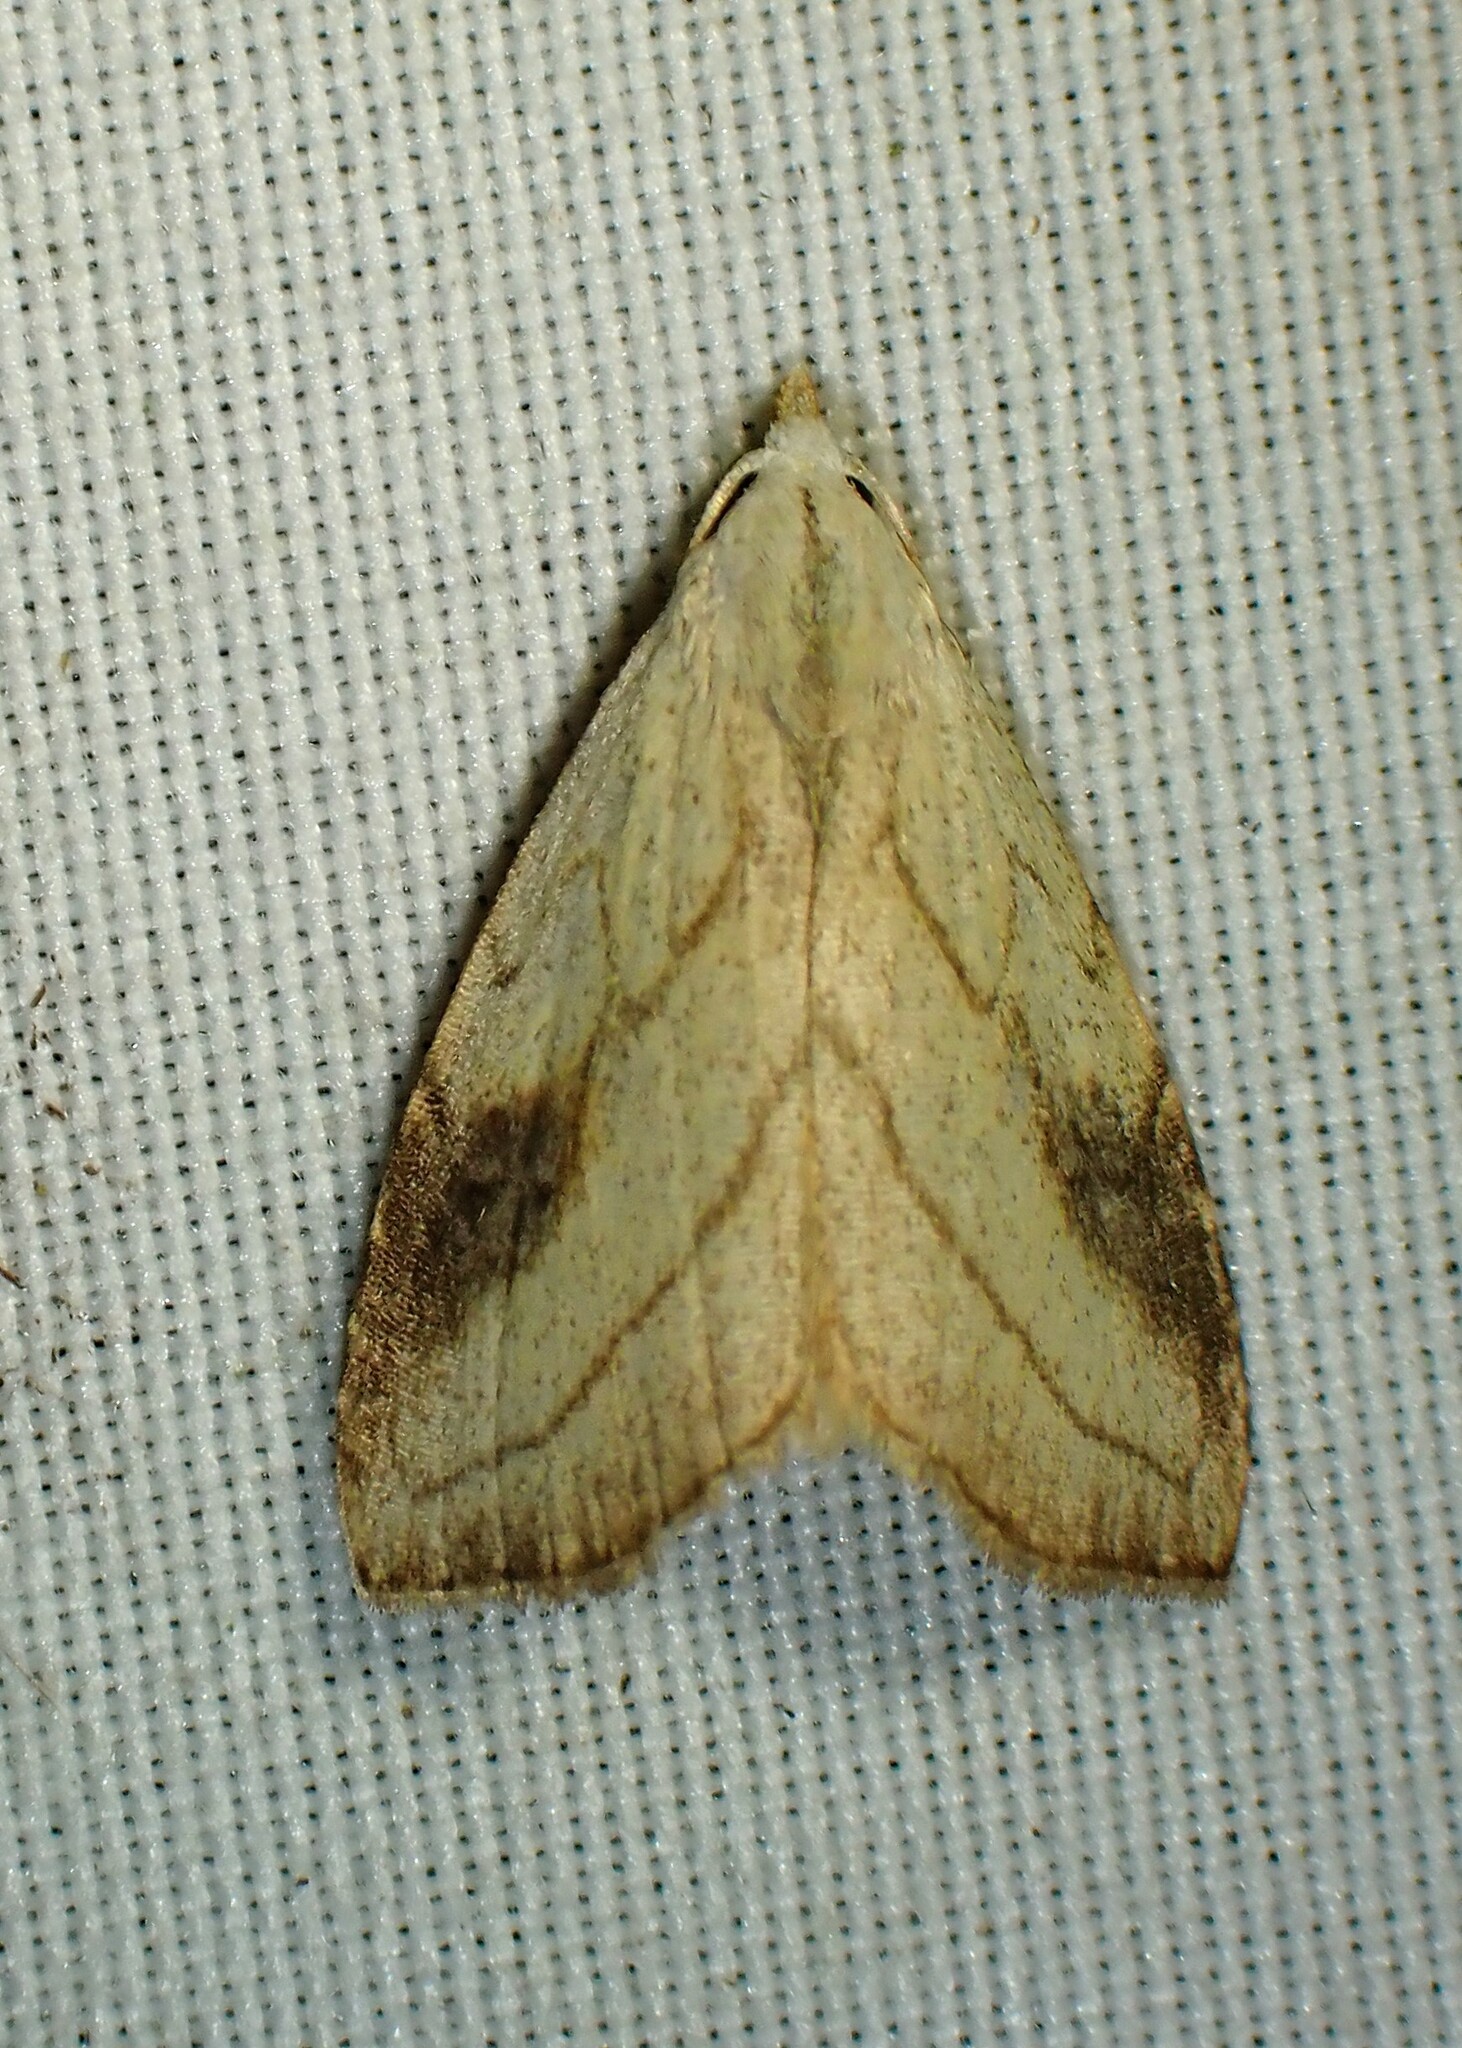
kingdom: Animalia
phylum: Arthropoda
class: Insecta
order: Lepidoptera
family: Erebidae
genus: Rivula
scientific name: Rivula propinqualis
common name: Spotted grass moth
